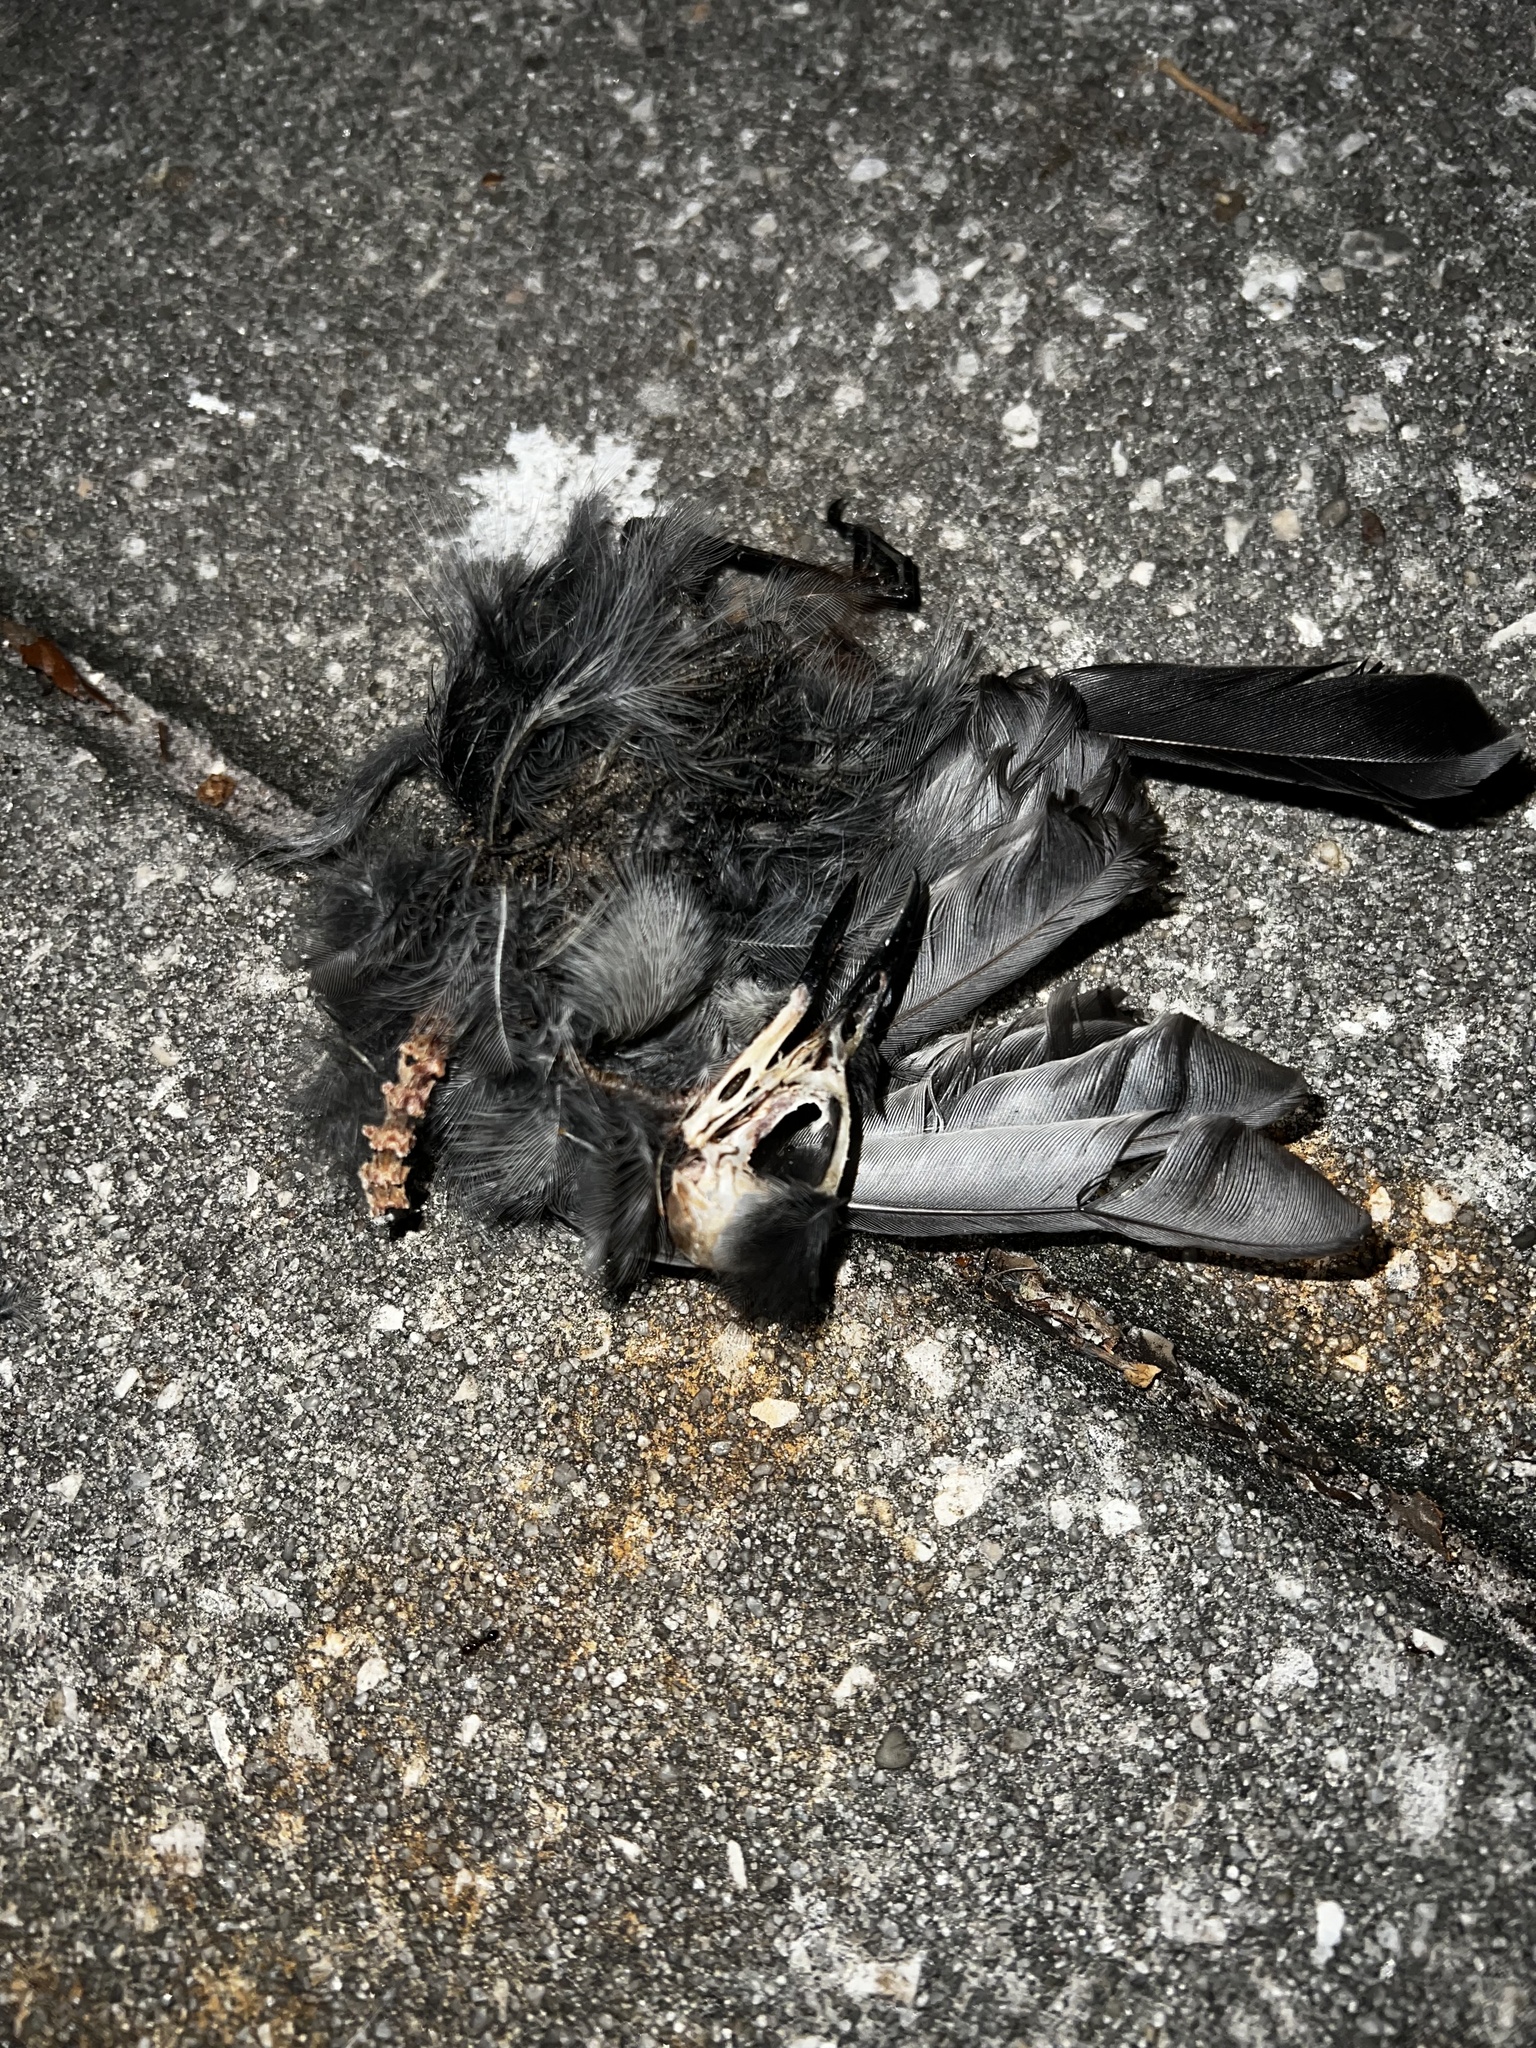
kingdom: Animalia
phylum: Chordata
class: Aves
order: Passeriformes
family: Mimidae
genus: Dumetella
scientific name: Dumetella carolinensis
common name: Gray catbird
